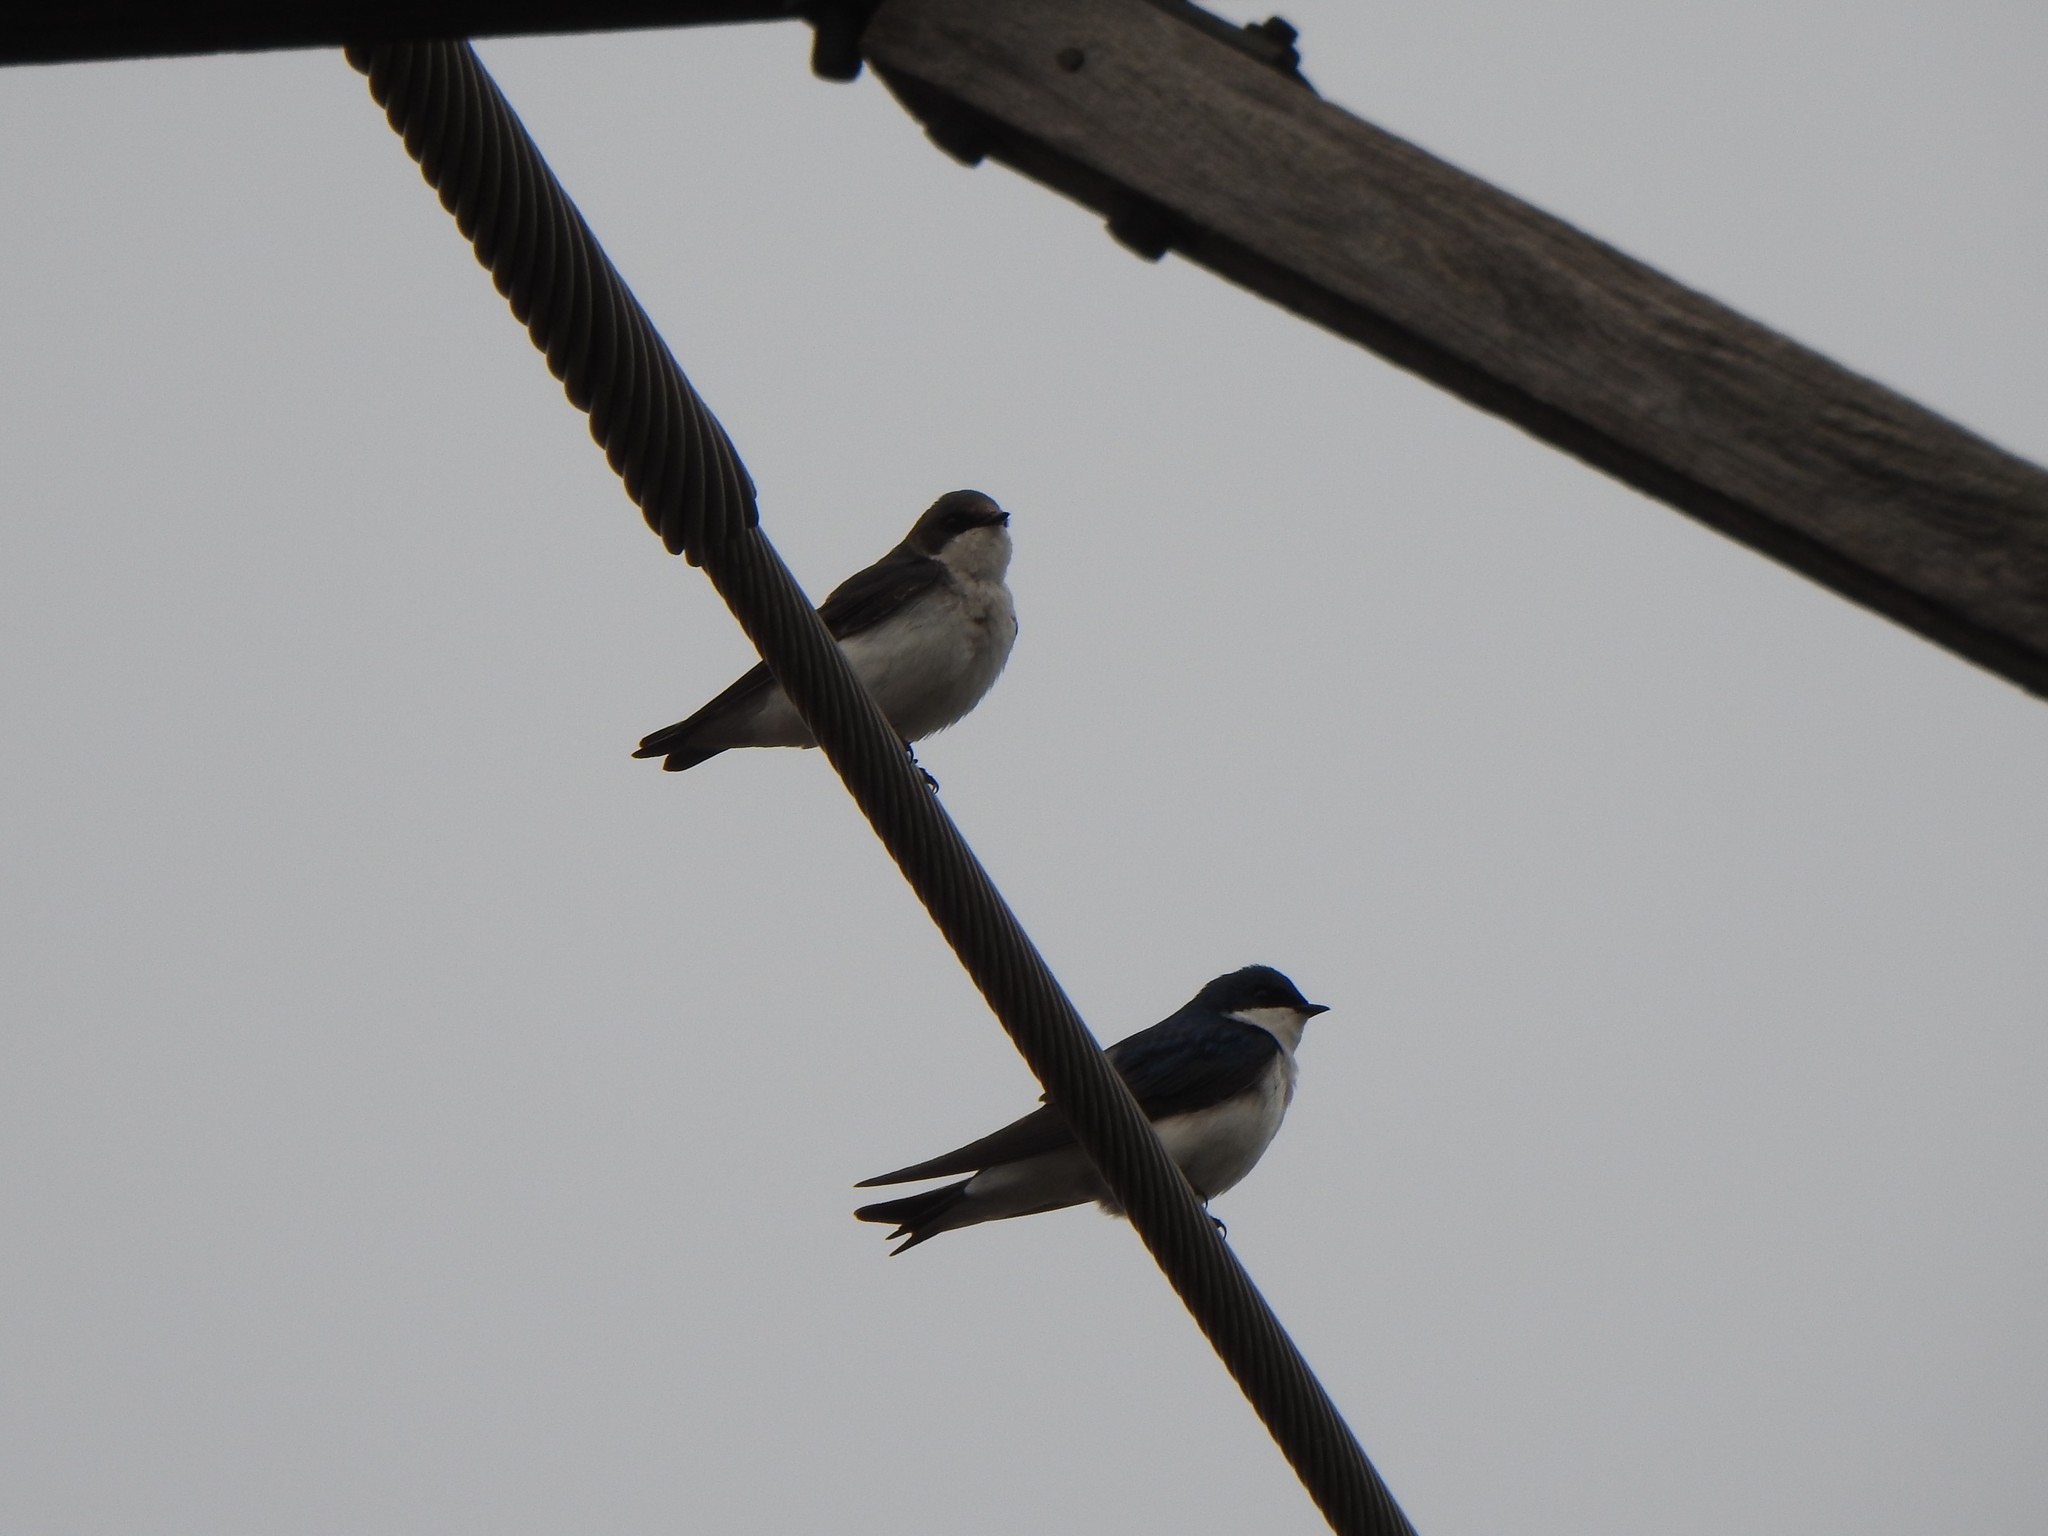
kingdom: Animalia
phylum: Chordata
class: Aves
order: Passeriformes
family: Hirundinidae
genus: Tachycineta
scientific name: Tachycineta bicolor
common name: Tree swallow
